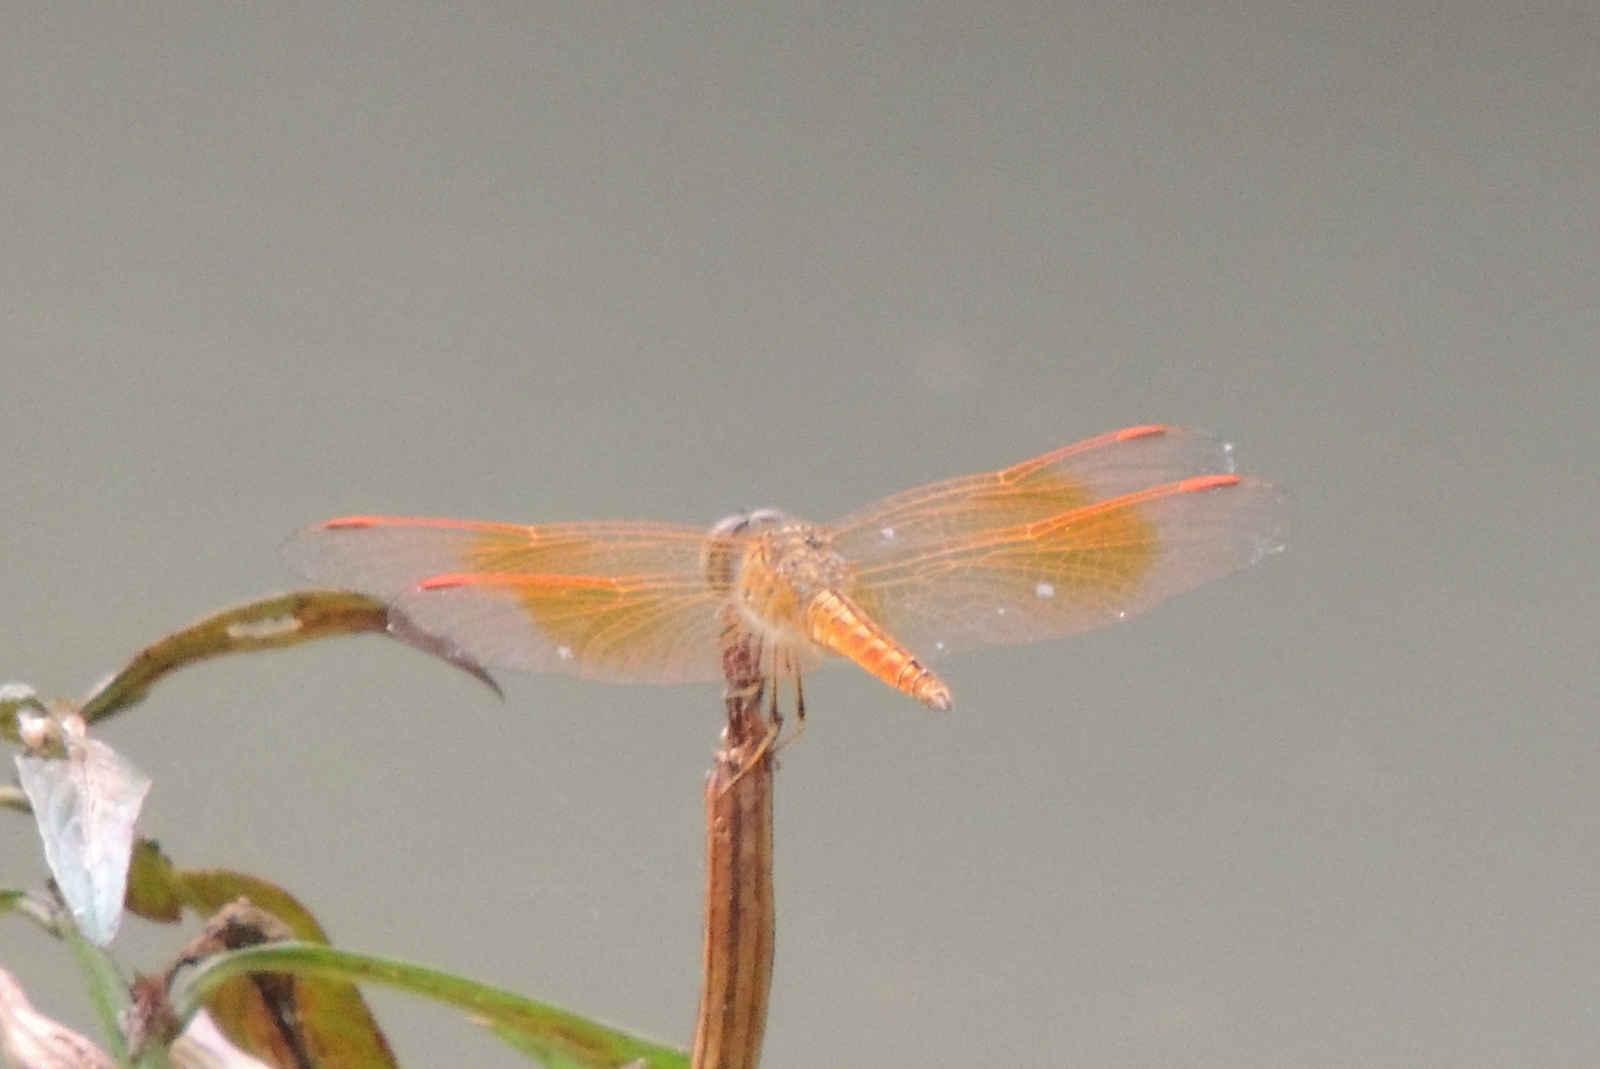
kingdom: Animalia
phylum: Arthropoda
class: Insecta
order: Odonata
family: Libellulidae
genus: Brachythemis
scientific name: Brachythemis contaminata
